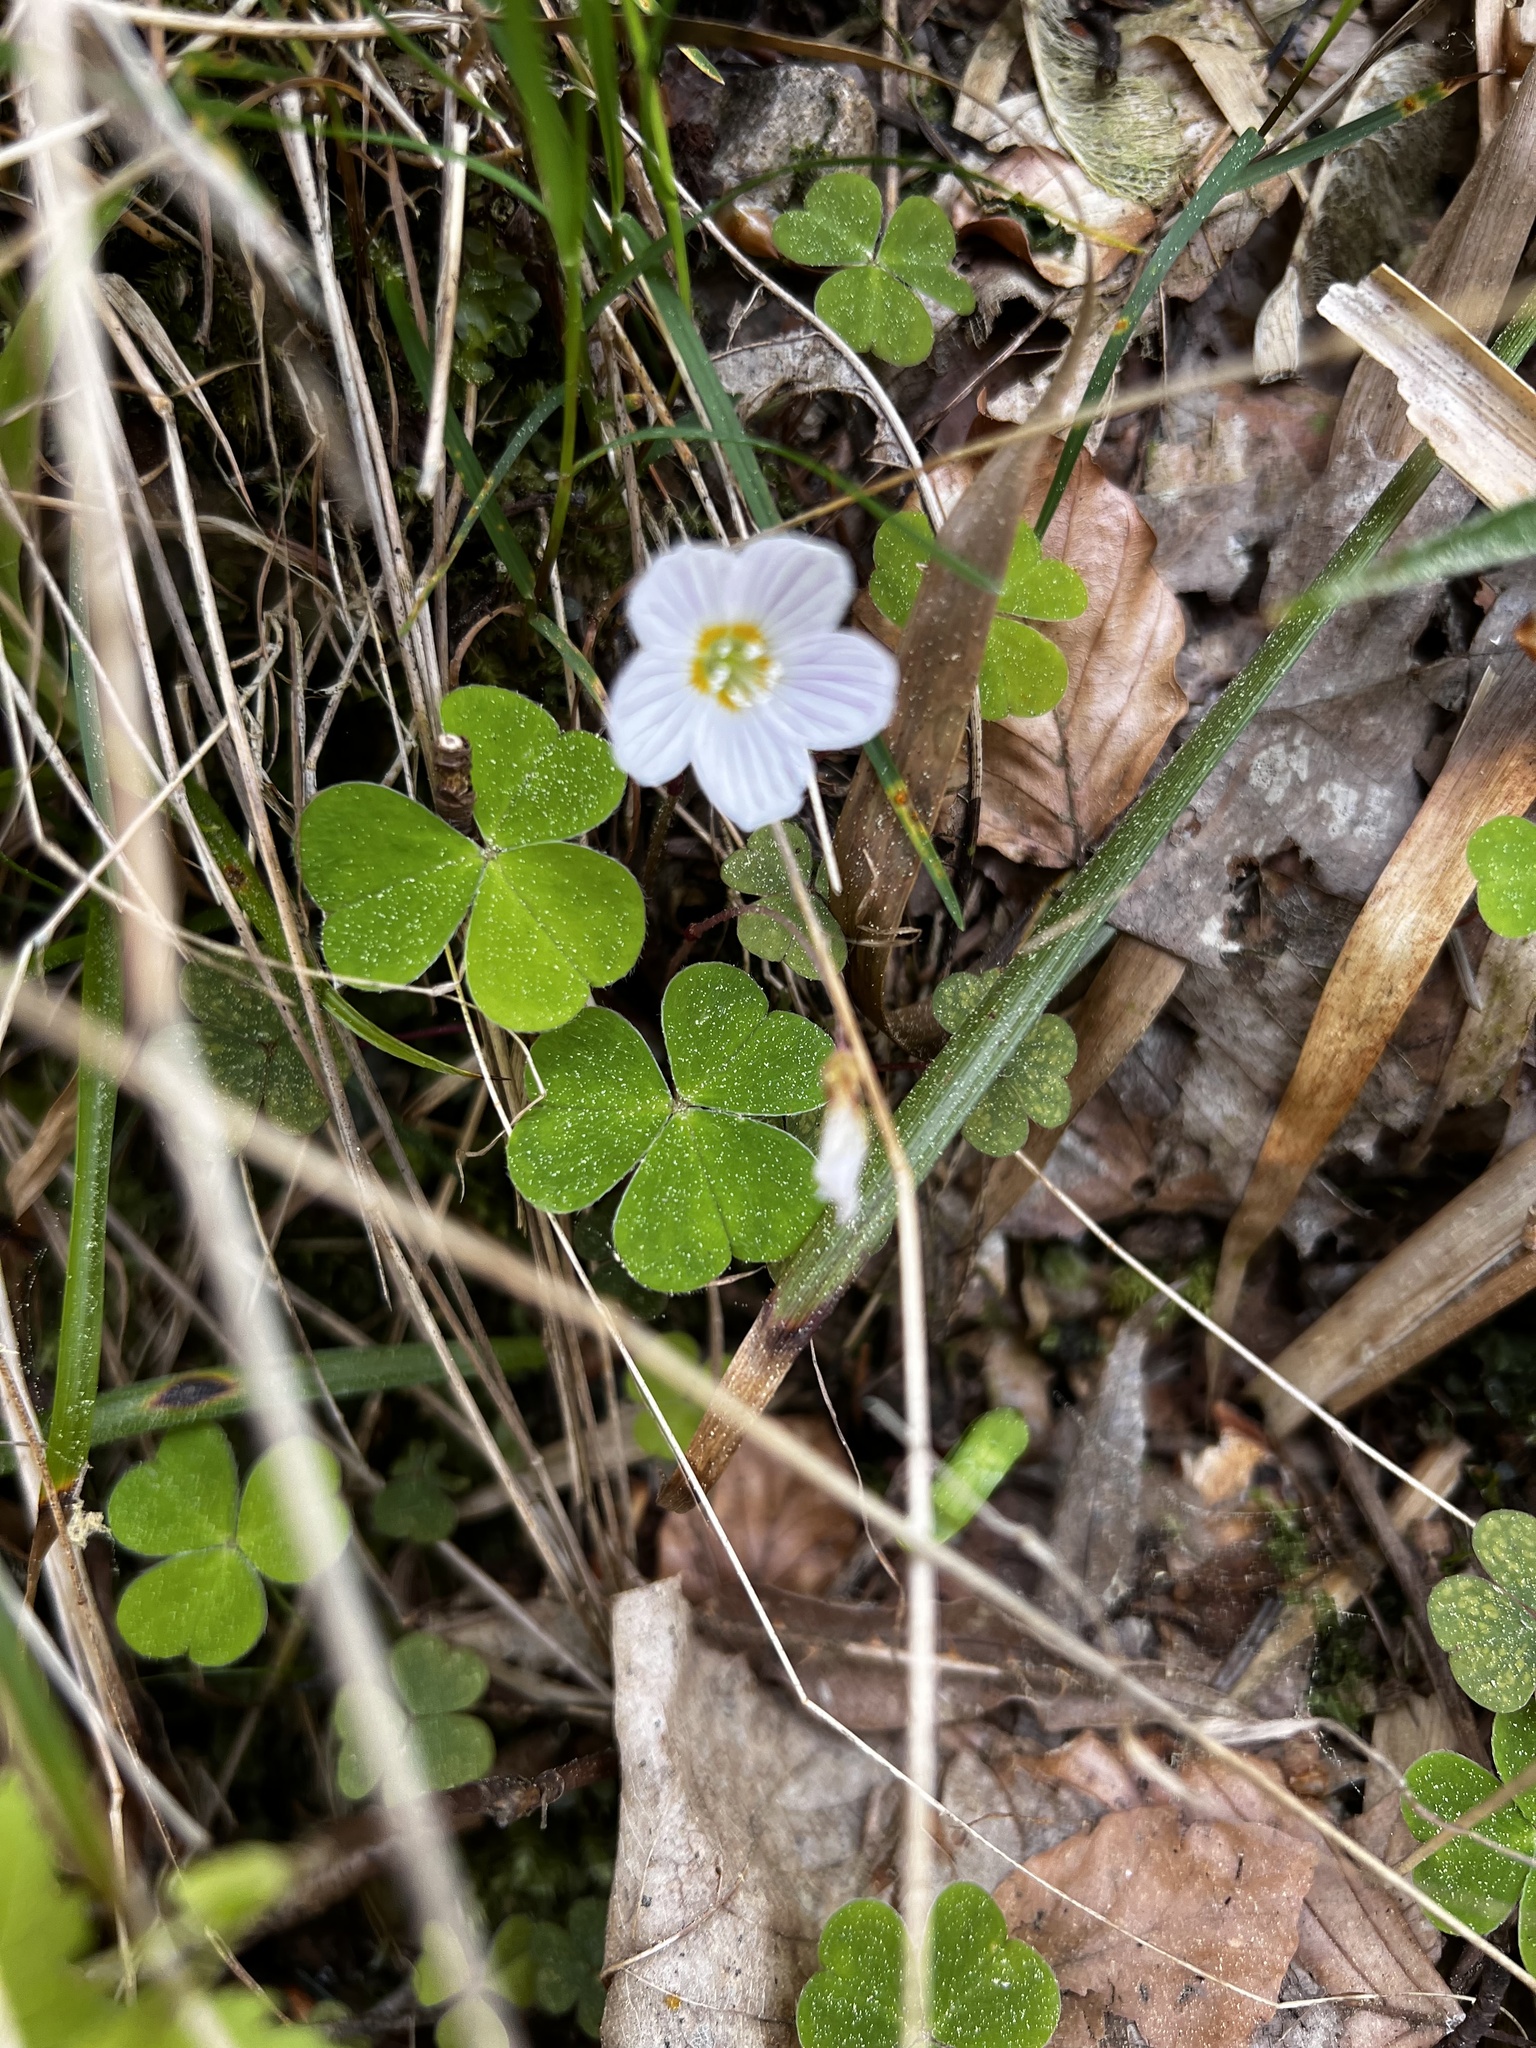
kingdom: Plantae
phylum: Tracheophyta
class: Magnoliopsida
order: Oxalidales
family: Oxalidaceae
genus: Oxalis
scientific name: Oxalis acetosella
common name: Wood-sorrel
